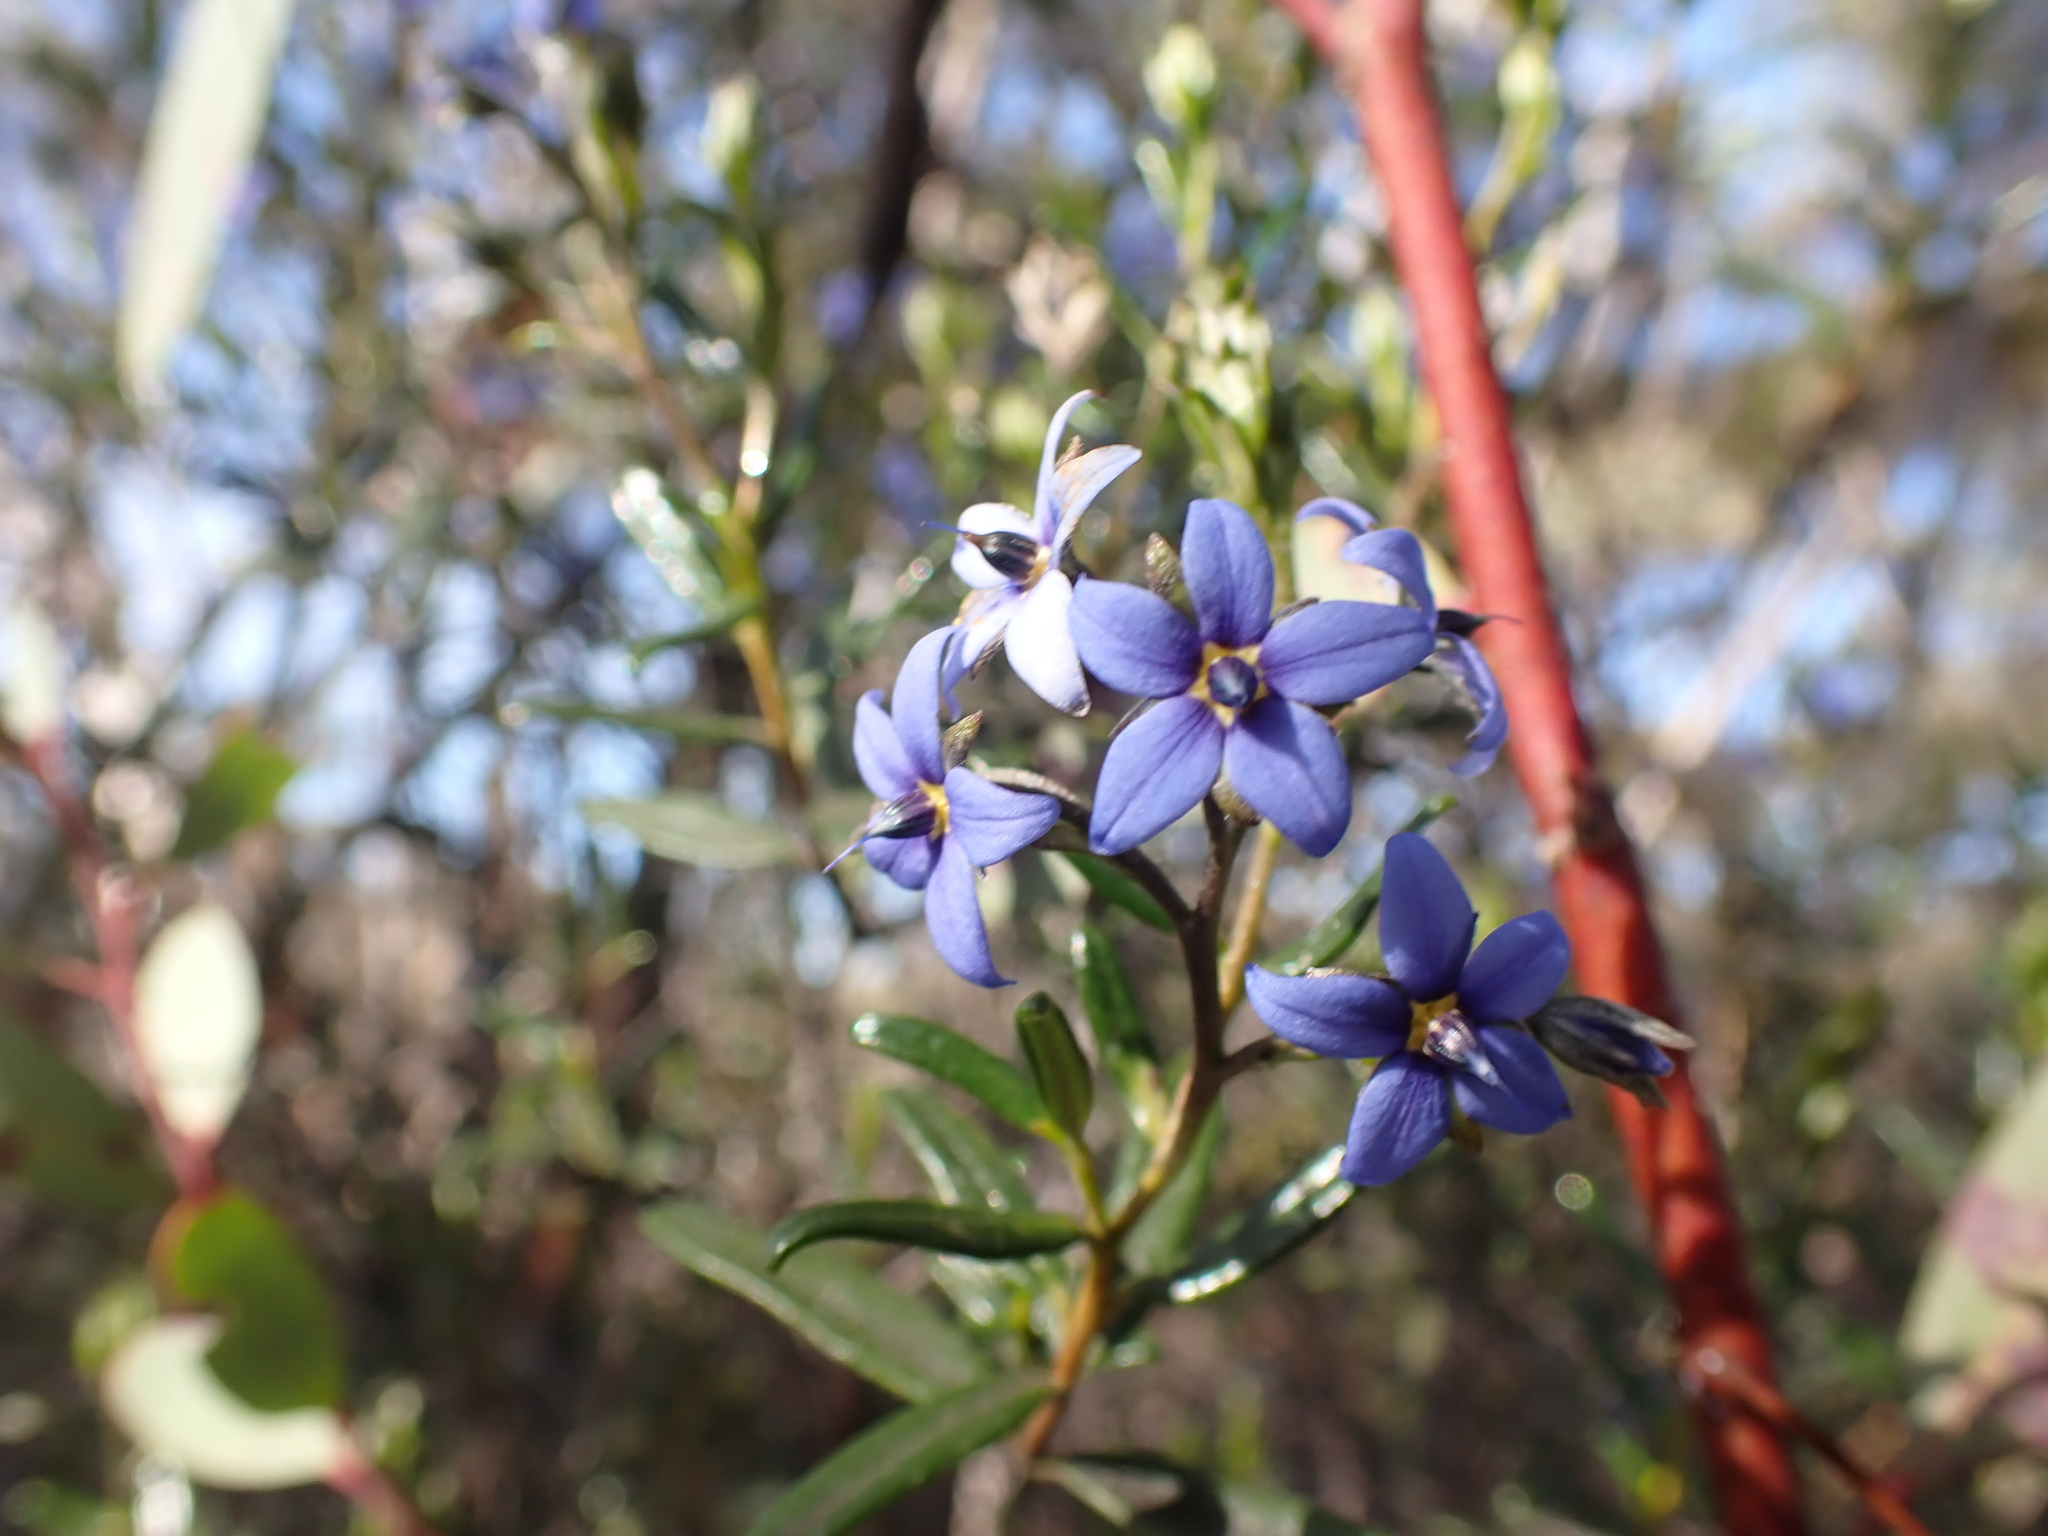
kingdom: Plantae
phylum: Tracheophyta
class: Magnoliopsida
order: Boraginales
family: Ehretiaceae
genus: Halgania
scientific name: Halgania andromedifolia
